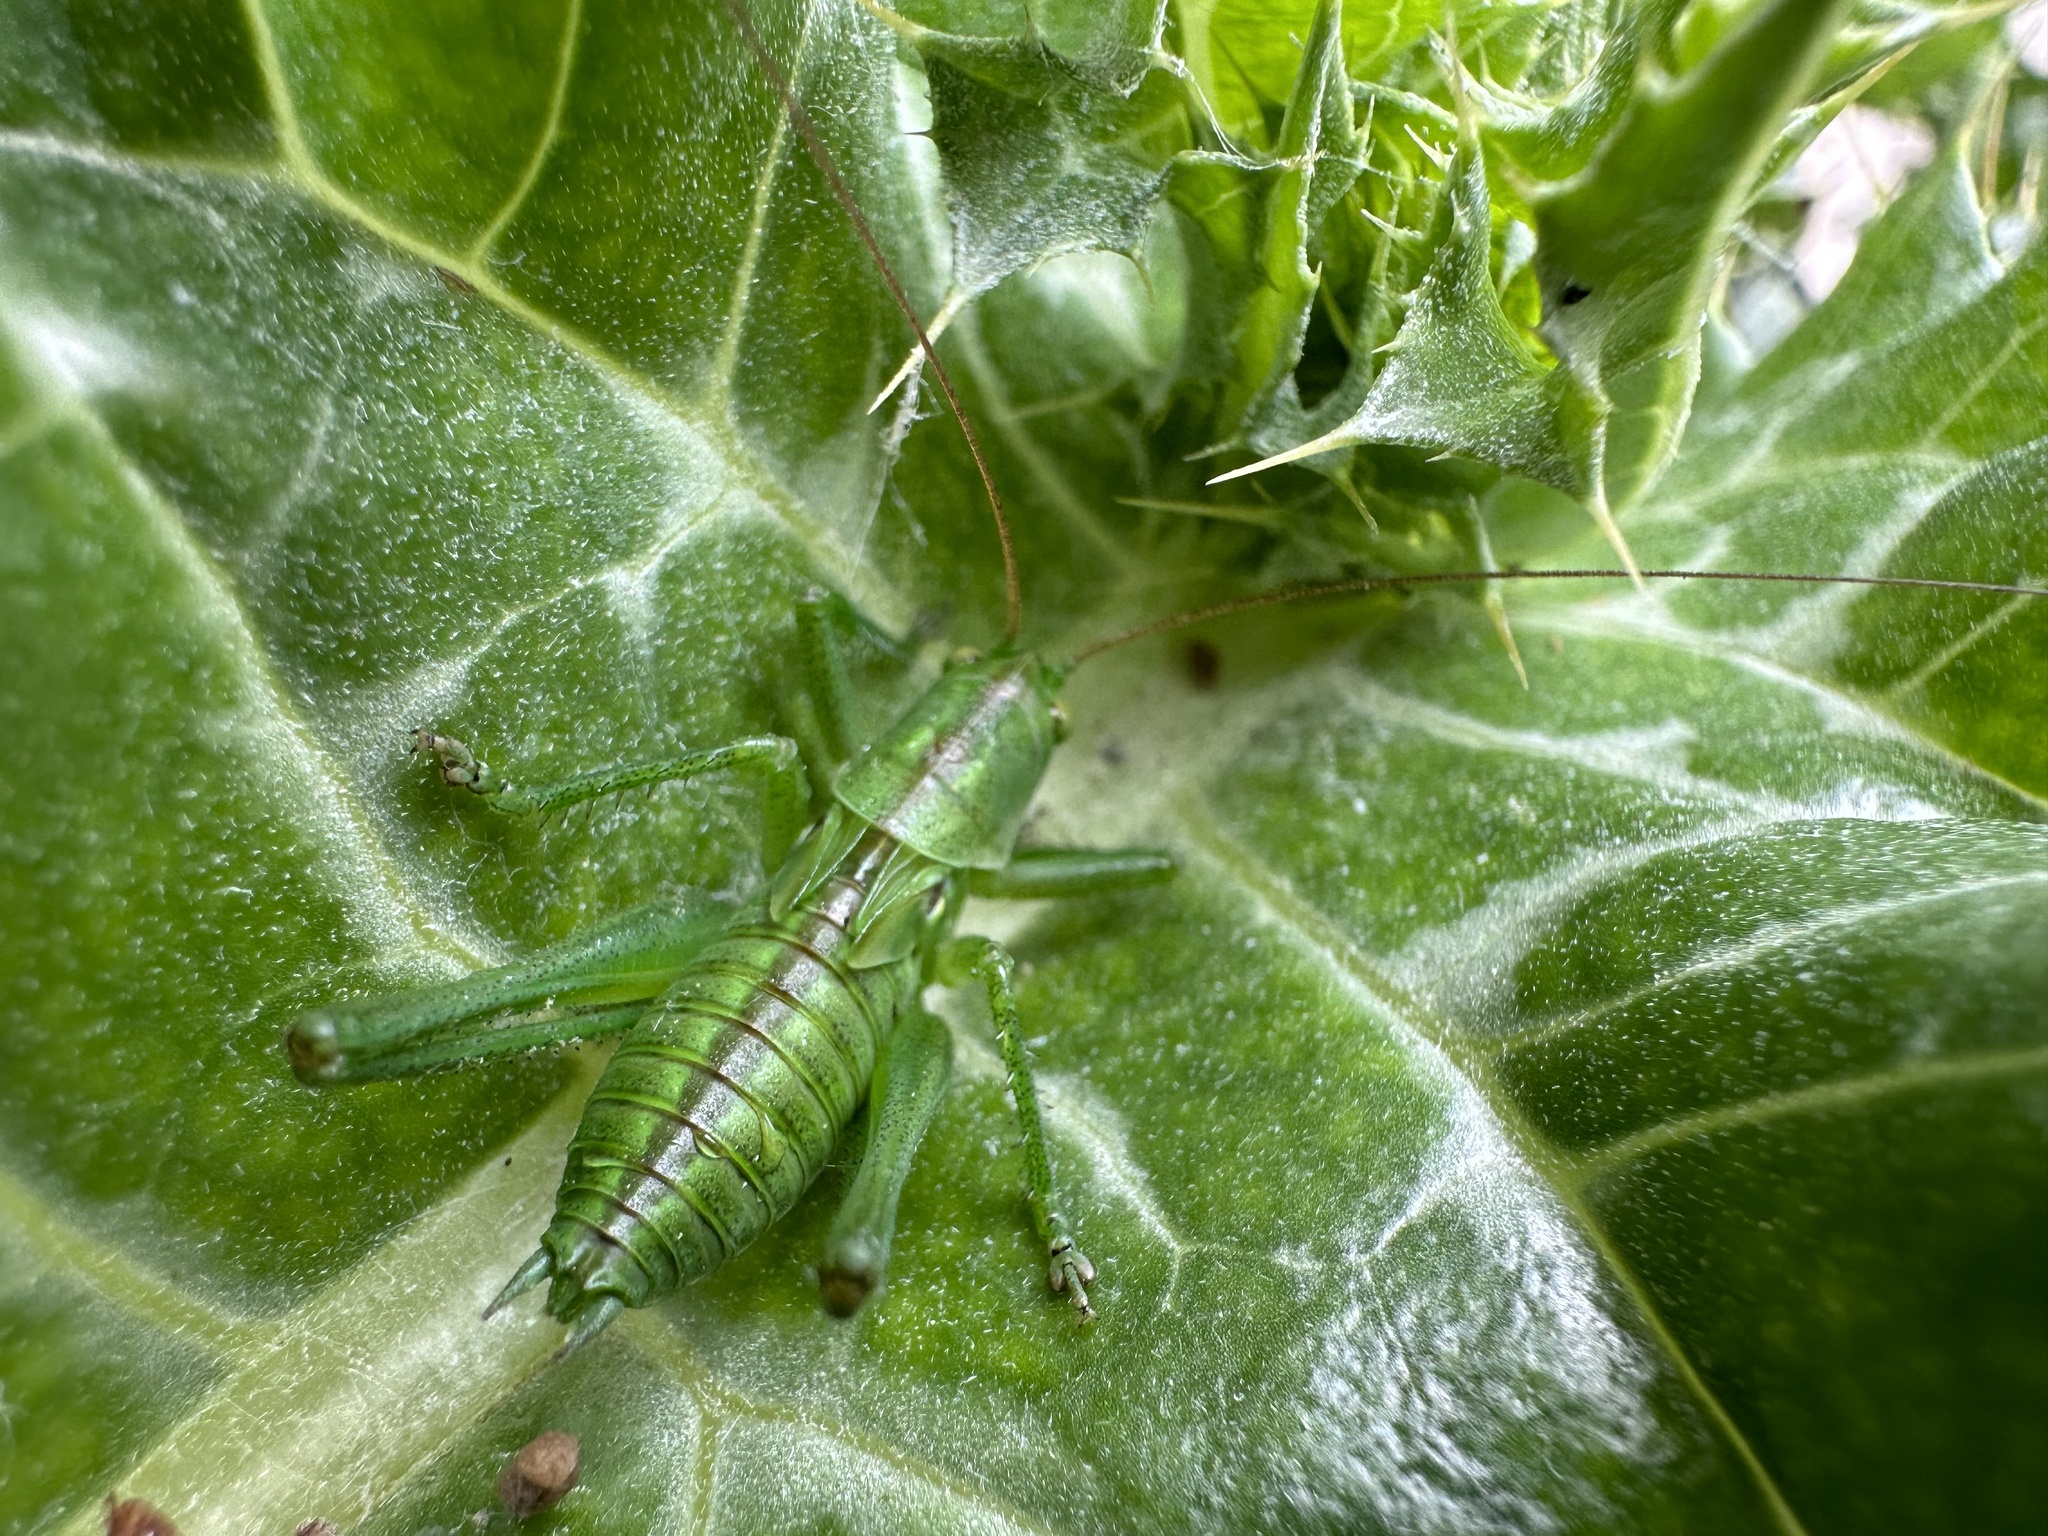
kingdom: Animalia
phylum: Arthropoda
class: Insecta
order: Orthoptera
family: Tettigoniidae
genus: Tettigonia
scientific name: Tettigonia viridissima
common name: Great green bush-cricket
